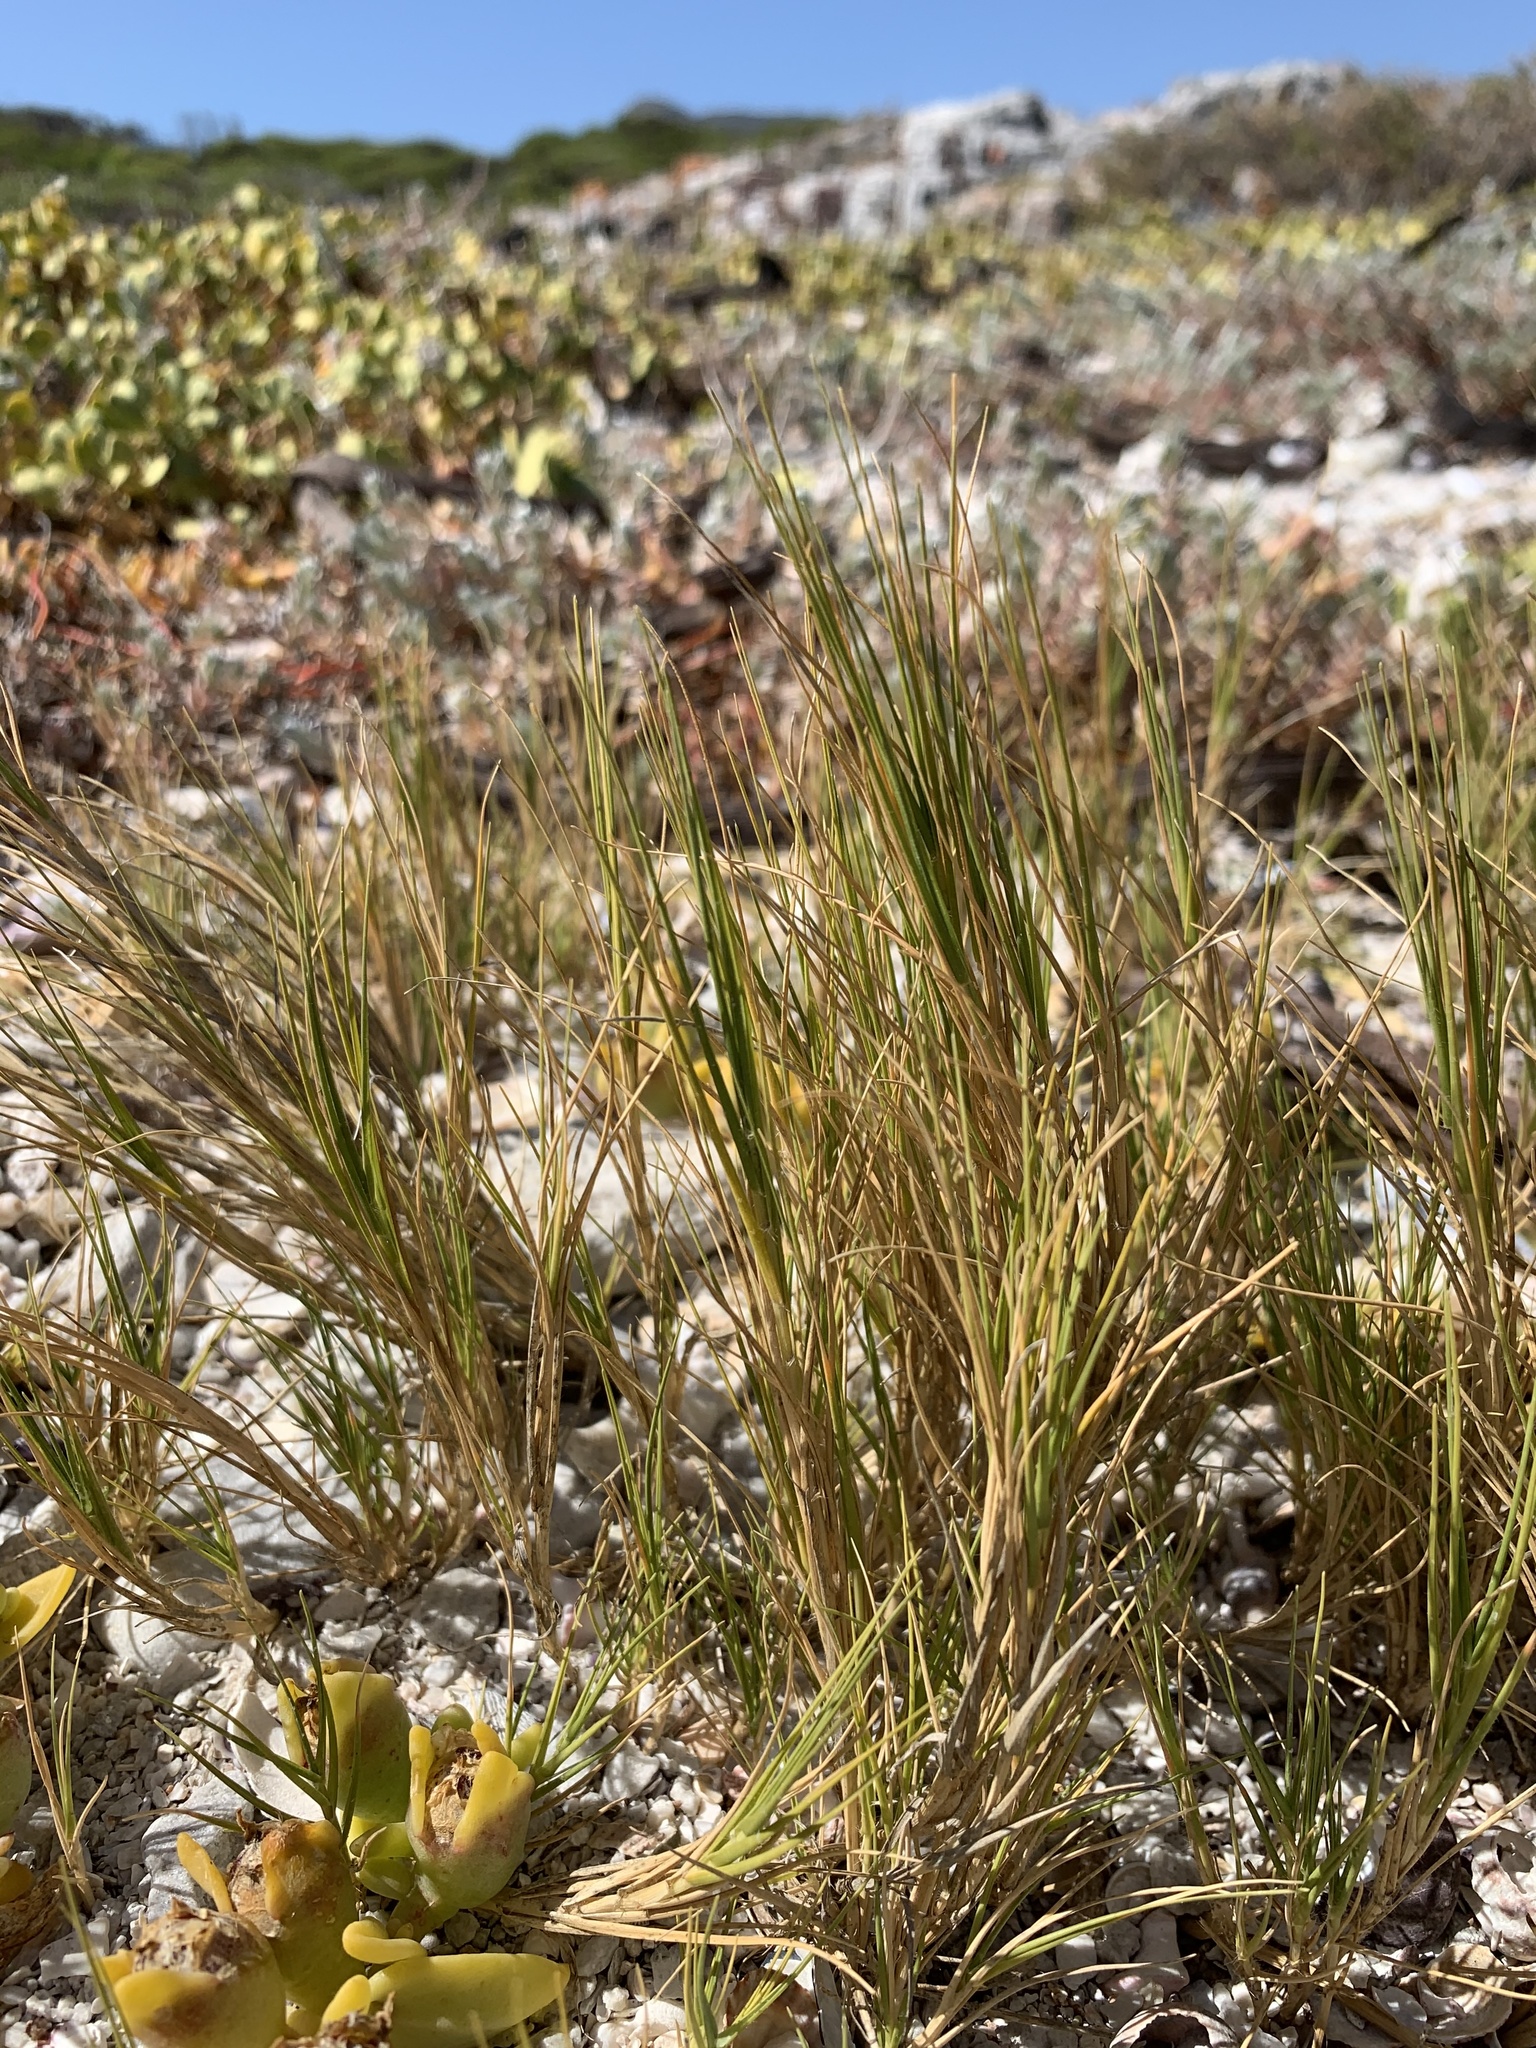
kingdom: Plantae
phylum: Tracheophyta
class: Liliopsida
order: Poales
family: Poaceae
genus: Sporobolus
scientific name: Sporobolus virginicus
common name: Beach dropseed
